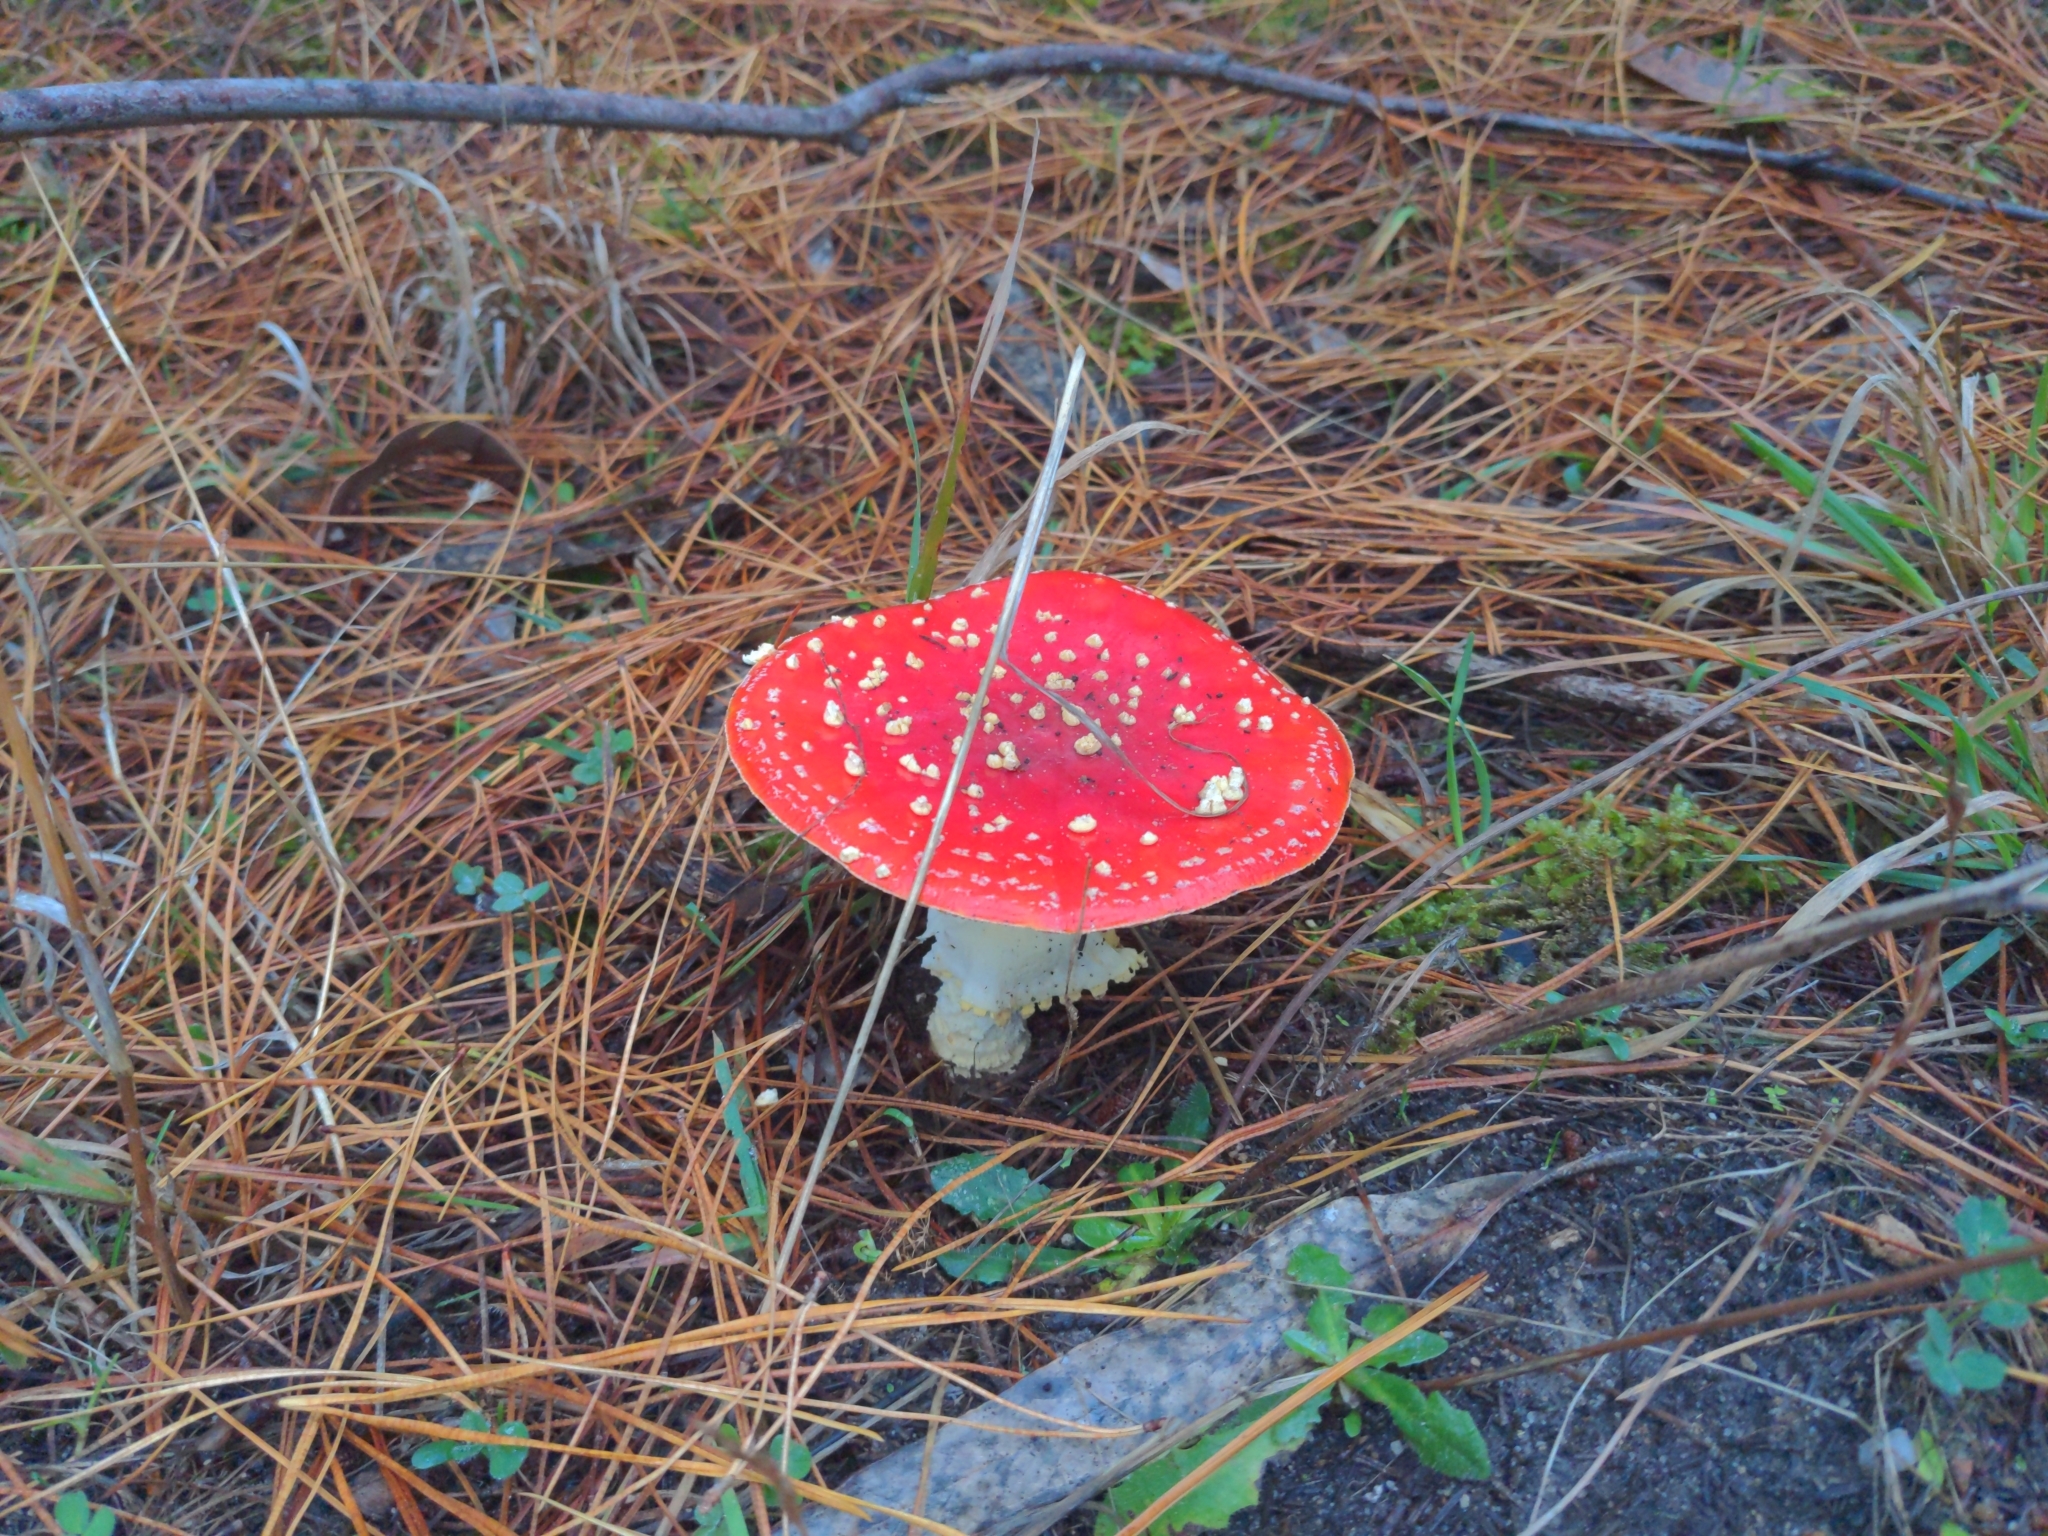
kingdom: Fungi
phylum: Basidiomycota
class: Agaricomycetes
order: Agaricales
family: Amanitaceae
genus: Amanita
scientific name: Amanita muscaria
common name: Fly agaric
